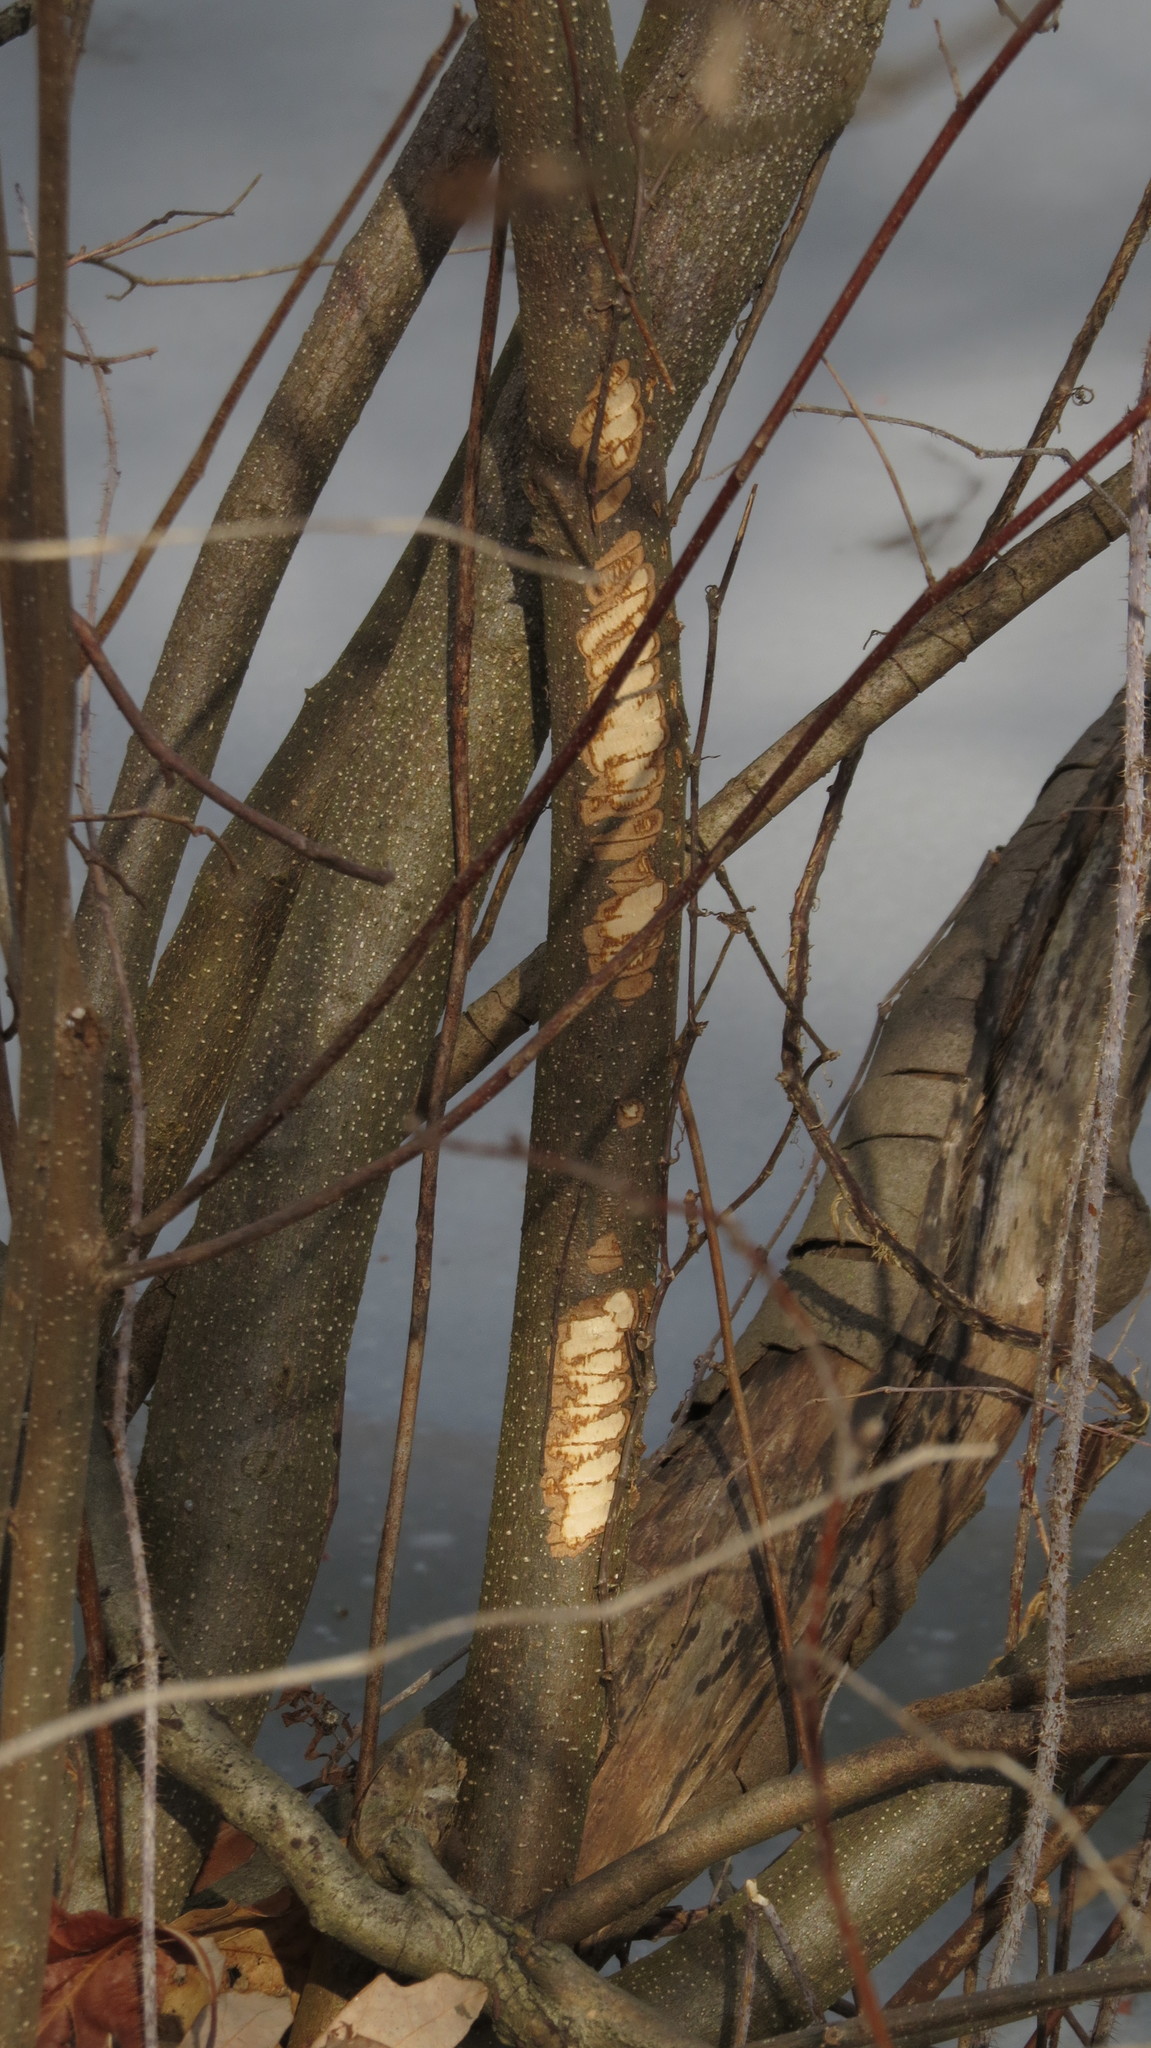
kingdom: Animalia
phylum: Chordata
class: Mammalia
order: Rodentia
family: Castoridae
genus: Castor
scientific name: Castor canadensis
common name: American beaver
